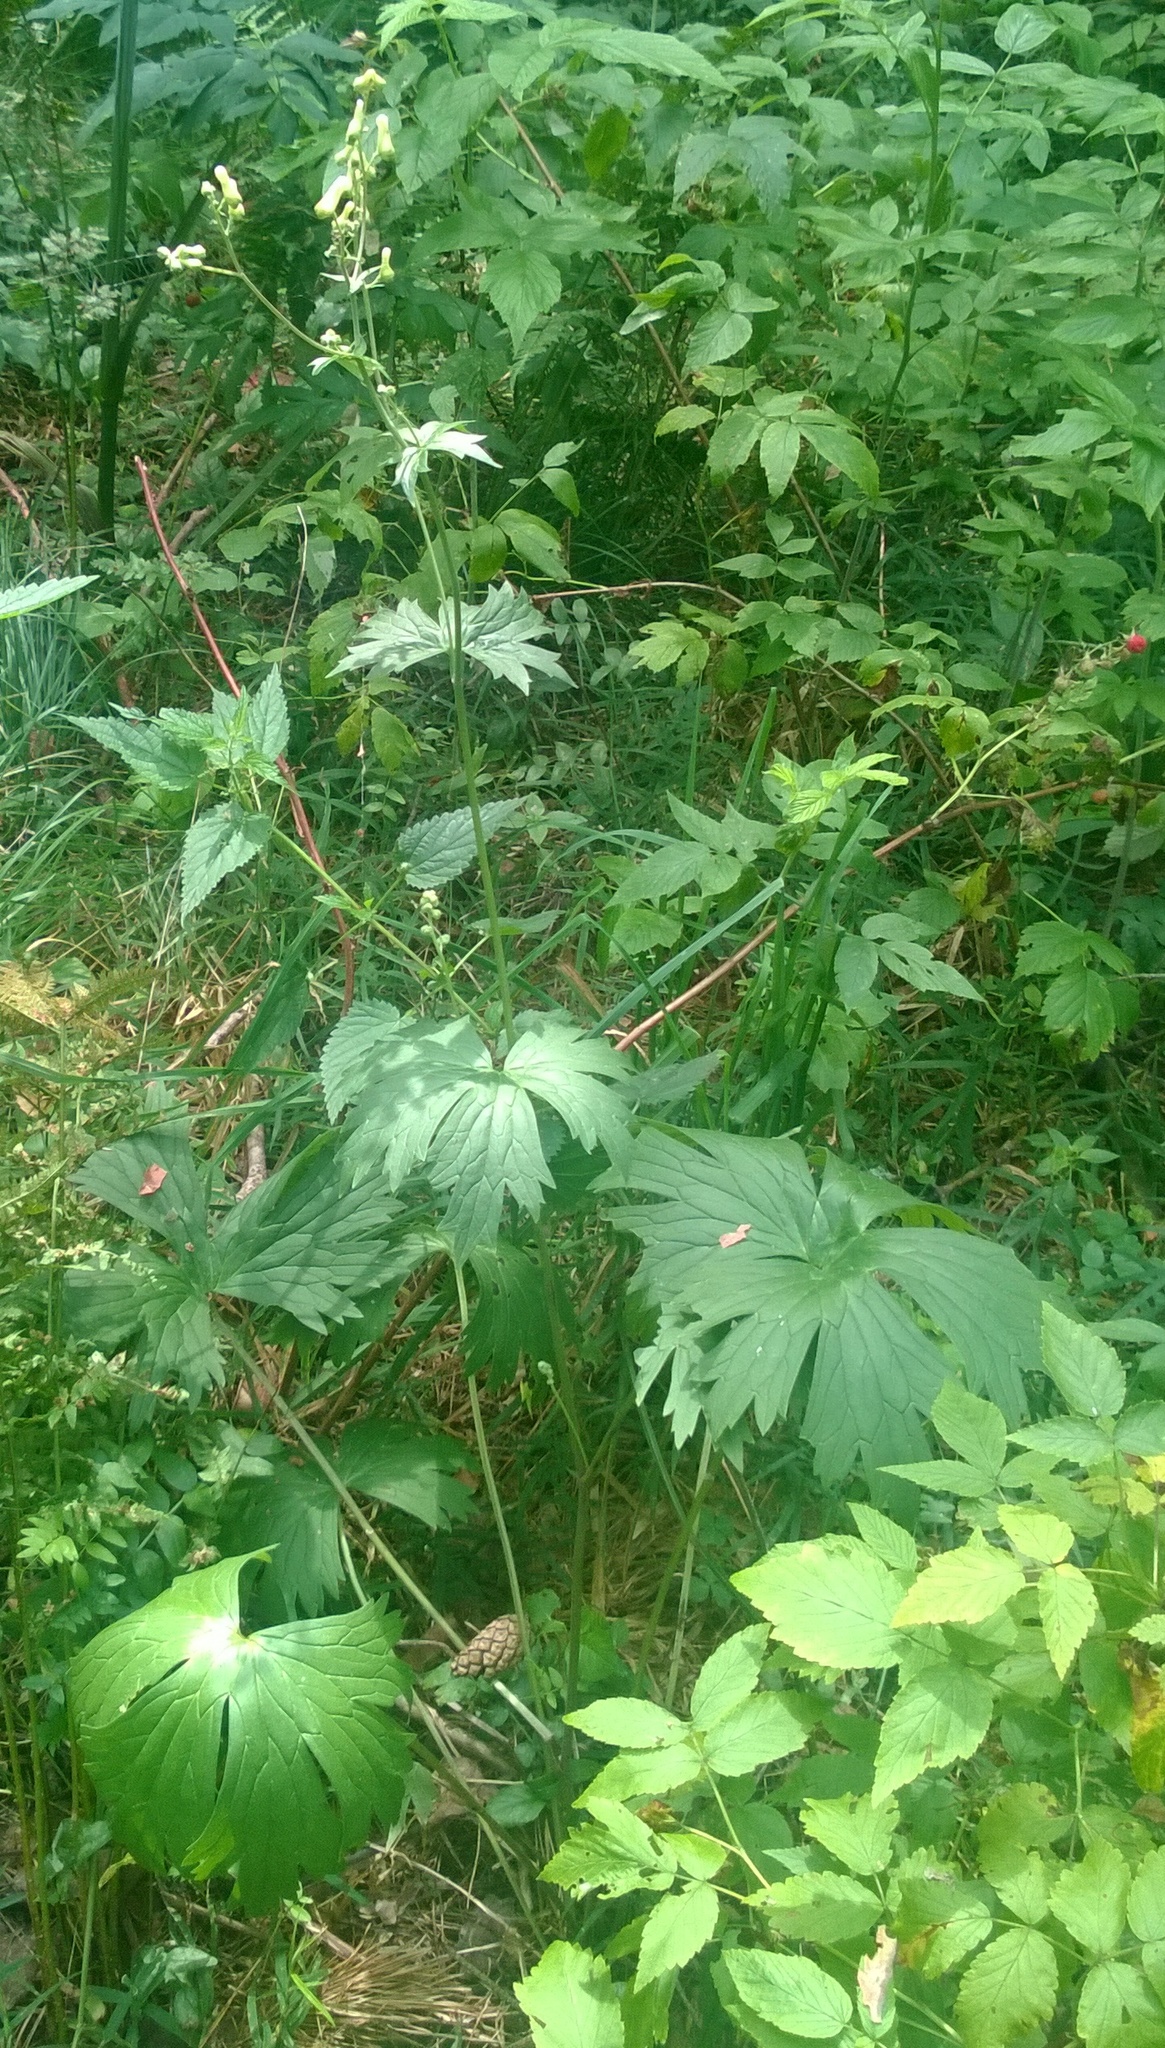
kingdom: Plantae
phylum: Tracheophyta
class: Magnoliopsida
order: Ranunculales
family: Ranunculaceae
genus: Aconitum
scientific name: Aconitum lasiostomum
